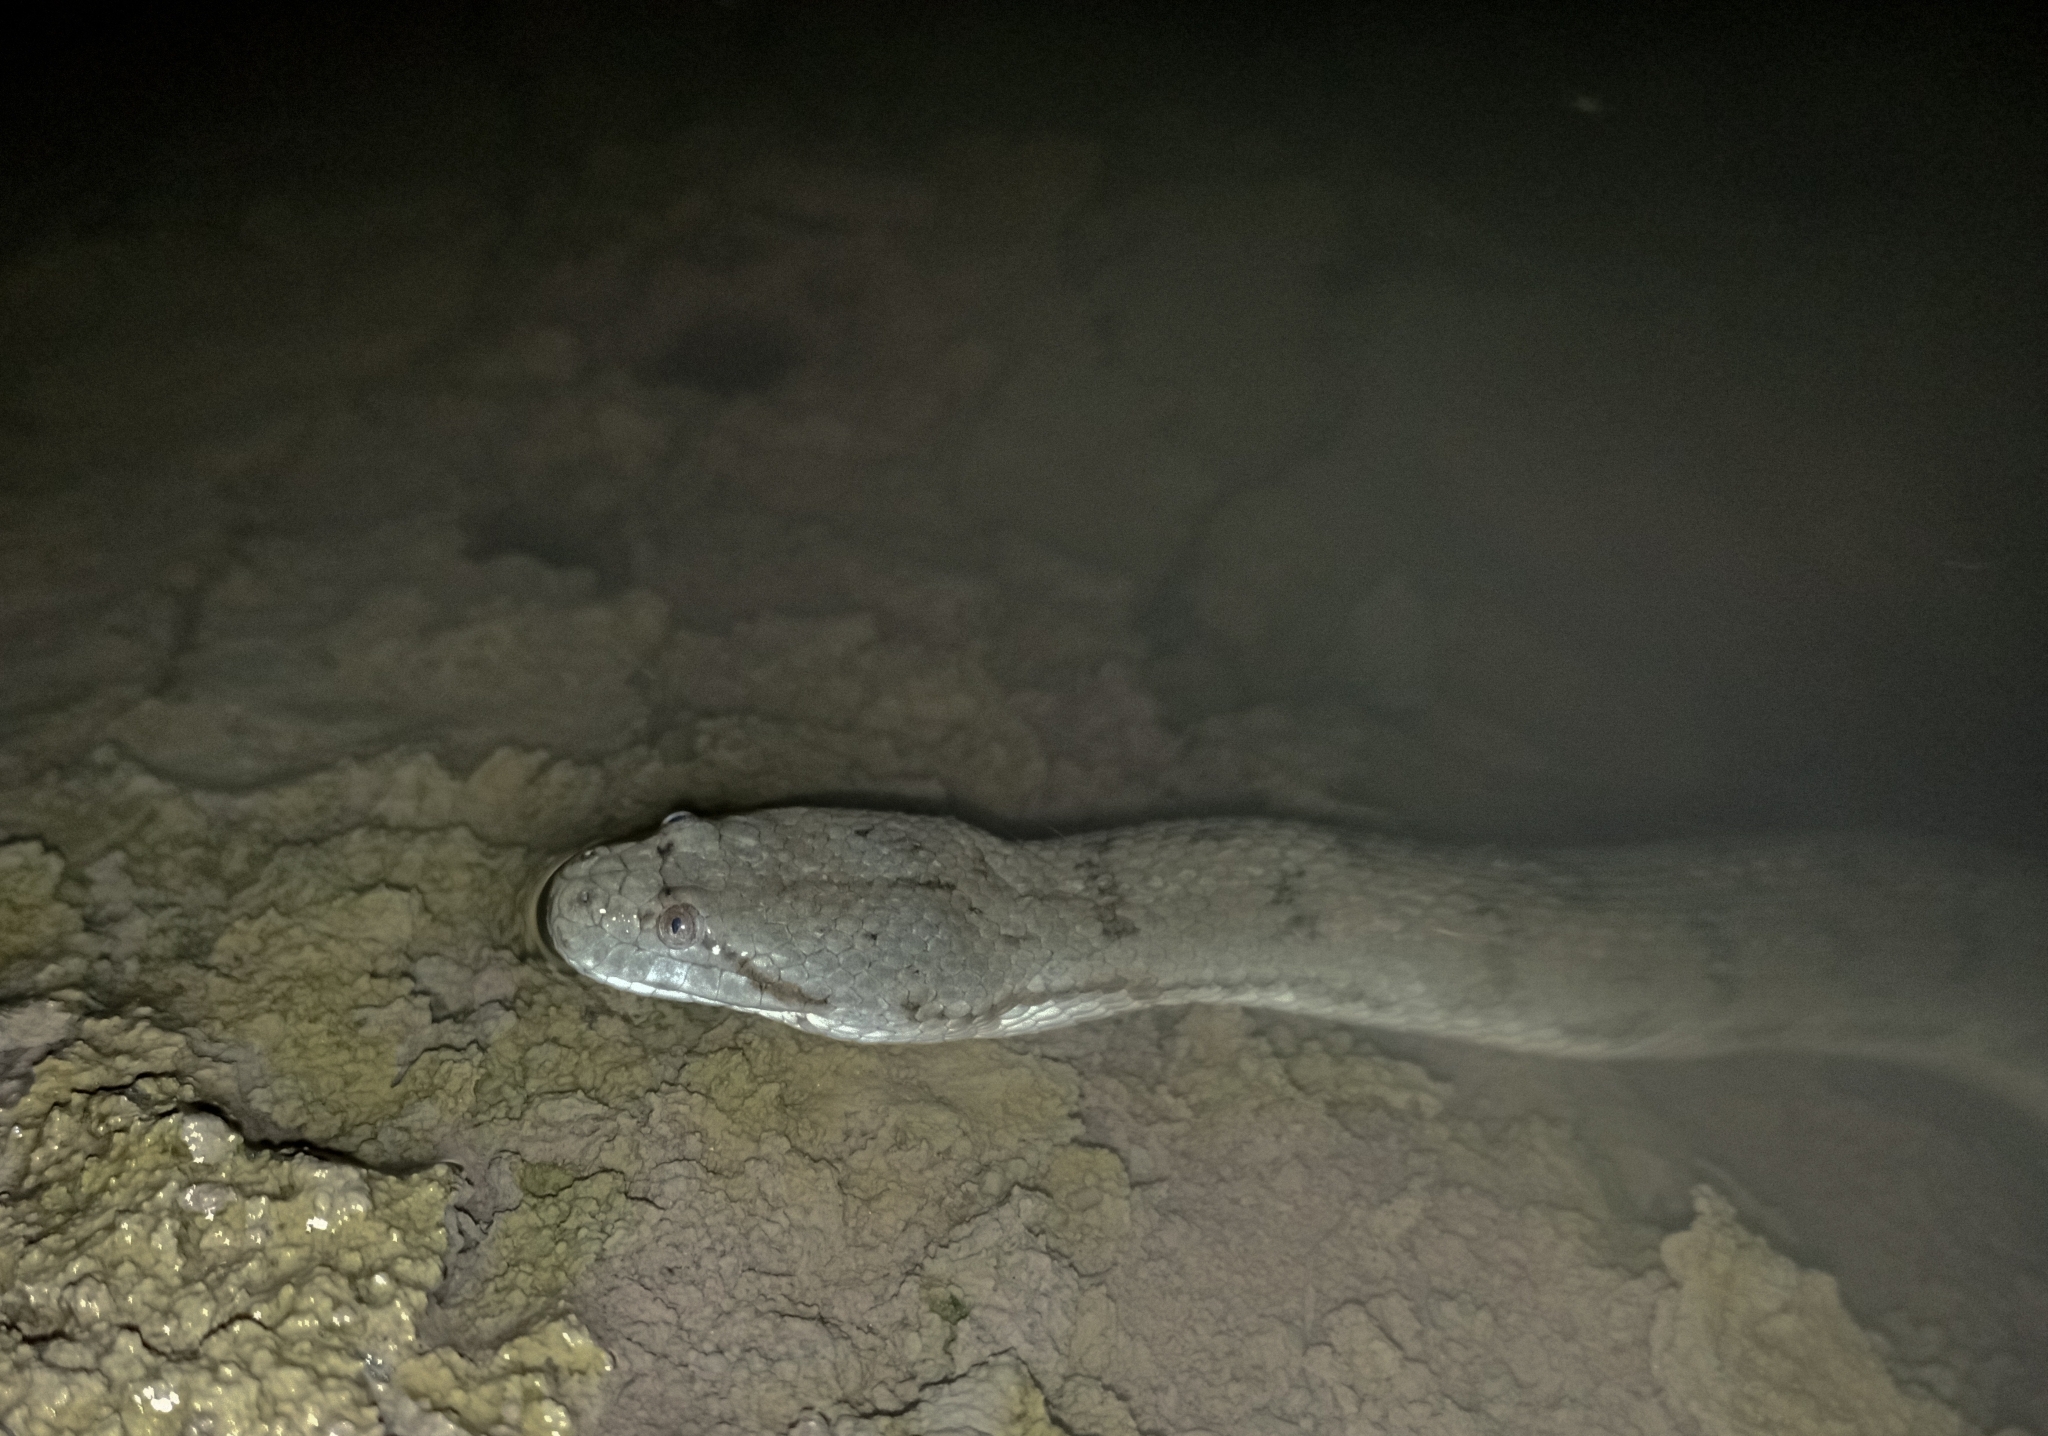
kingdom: Animalia
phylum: Chordata
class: Squamata
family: Homalopsidae
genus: Cerberus
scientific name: Cerberus schneiderii
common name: Southeast asian bockadam
